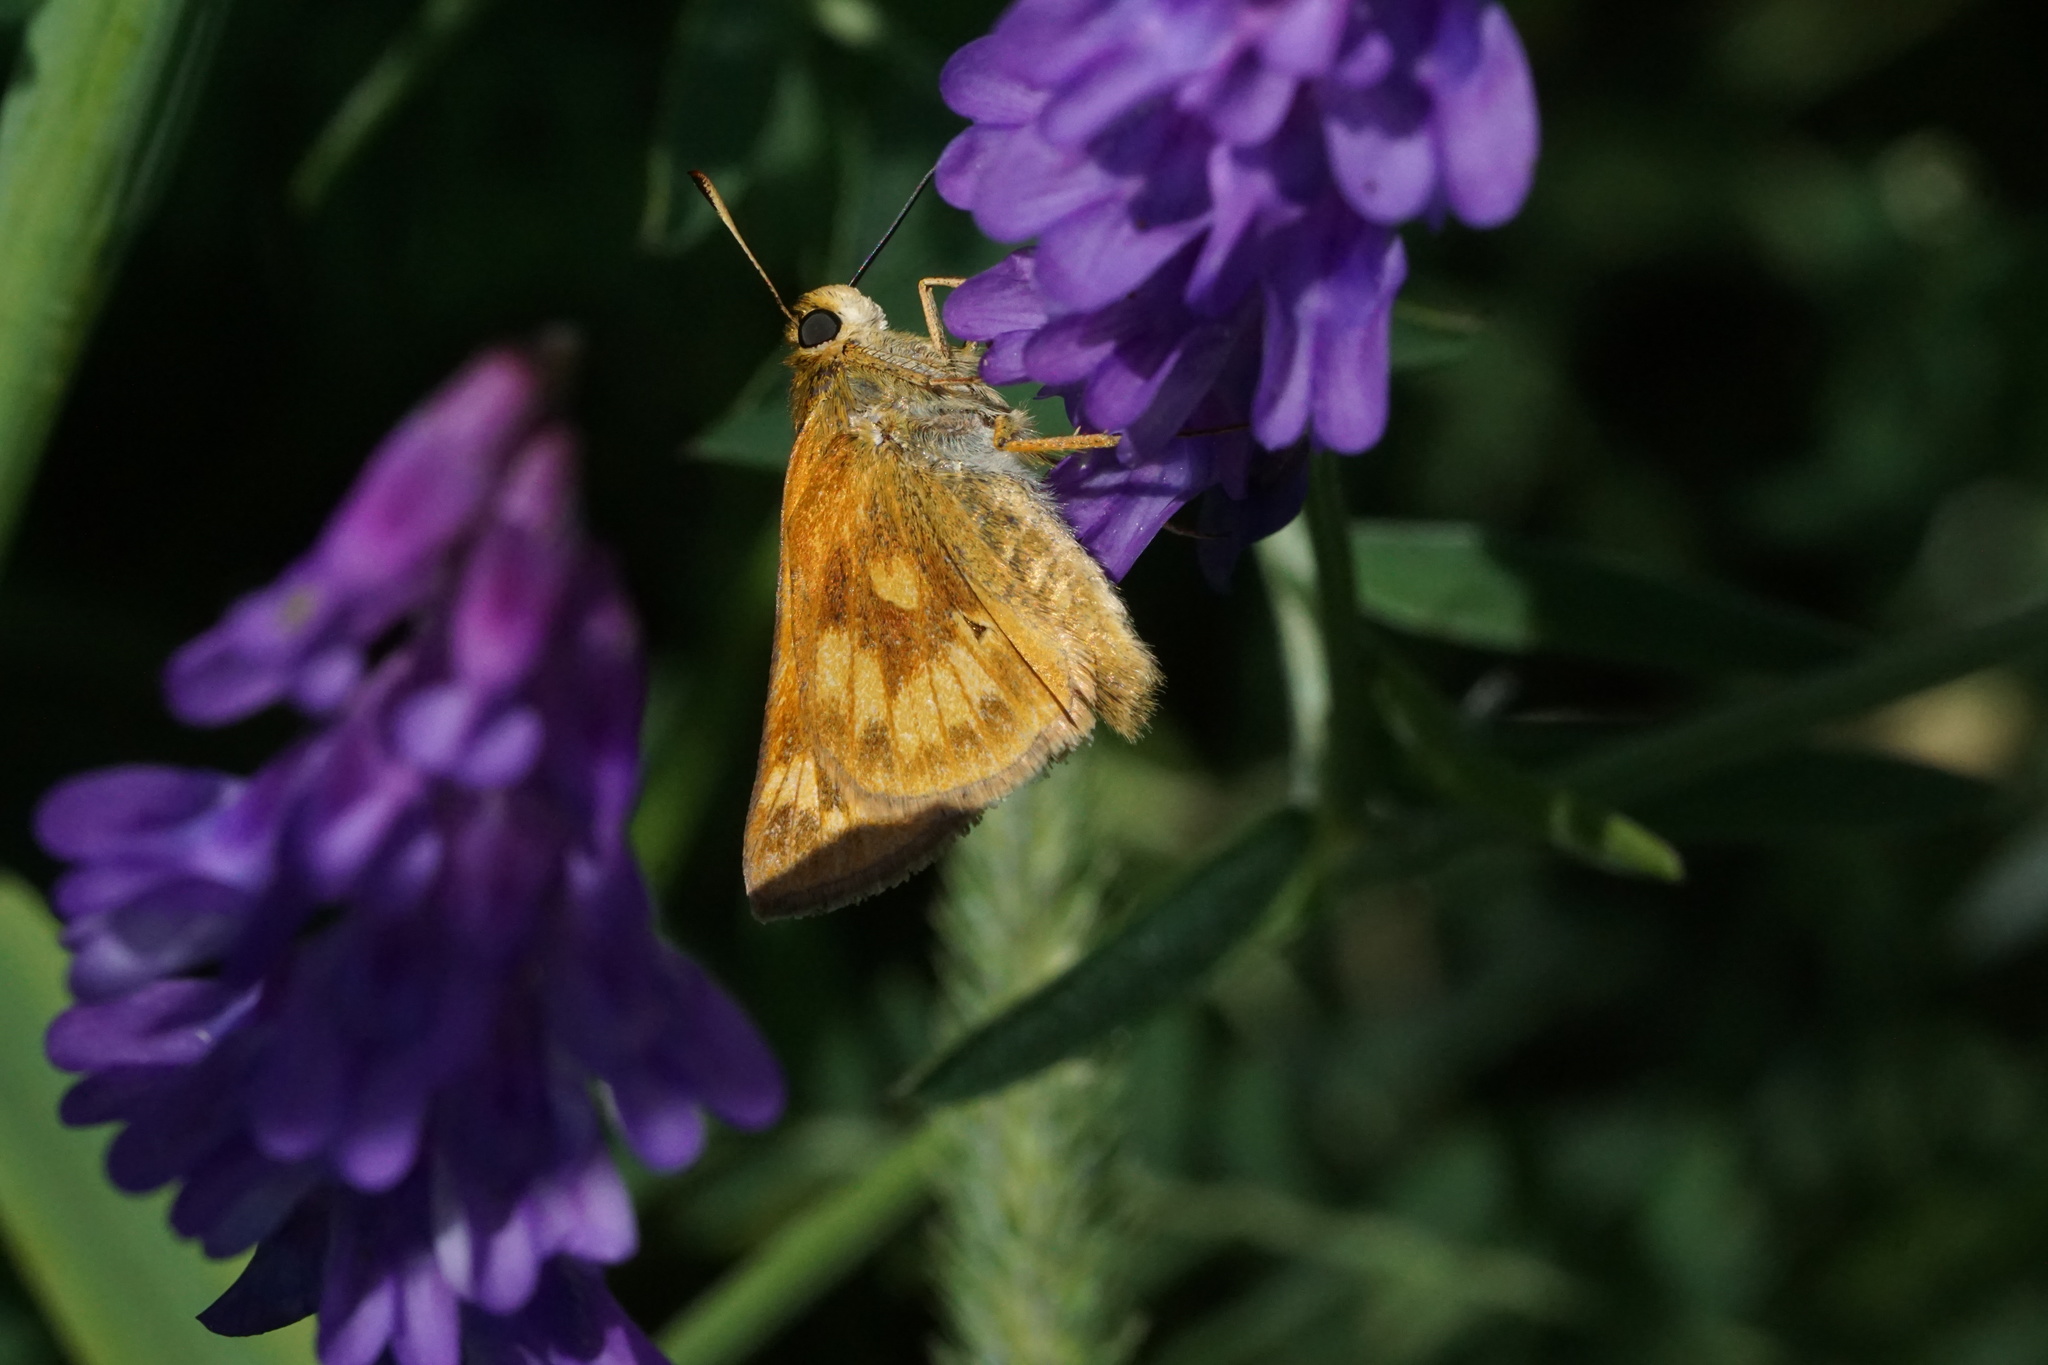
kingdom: Animalia
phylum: Arthropoda
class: Insecta
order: Lepidoptera
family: Hesperiidae
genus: Polites
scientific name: Polites mystic
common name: Long dash
